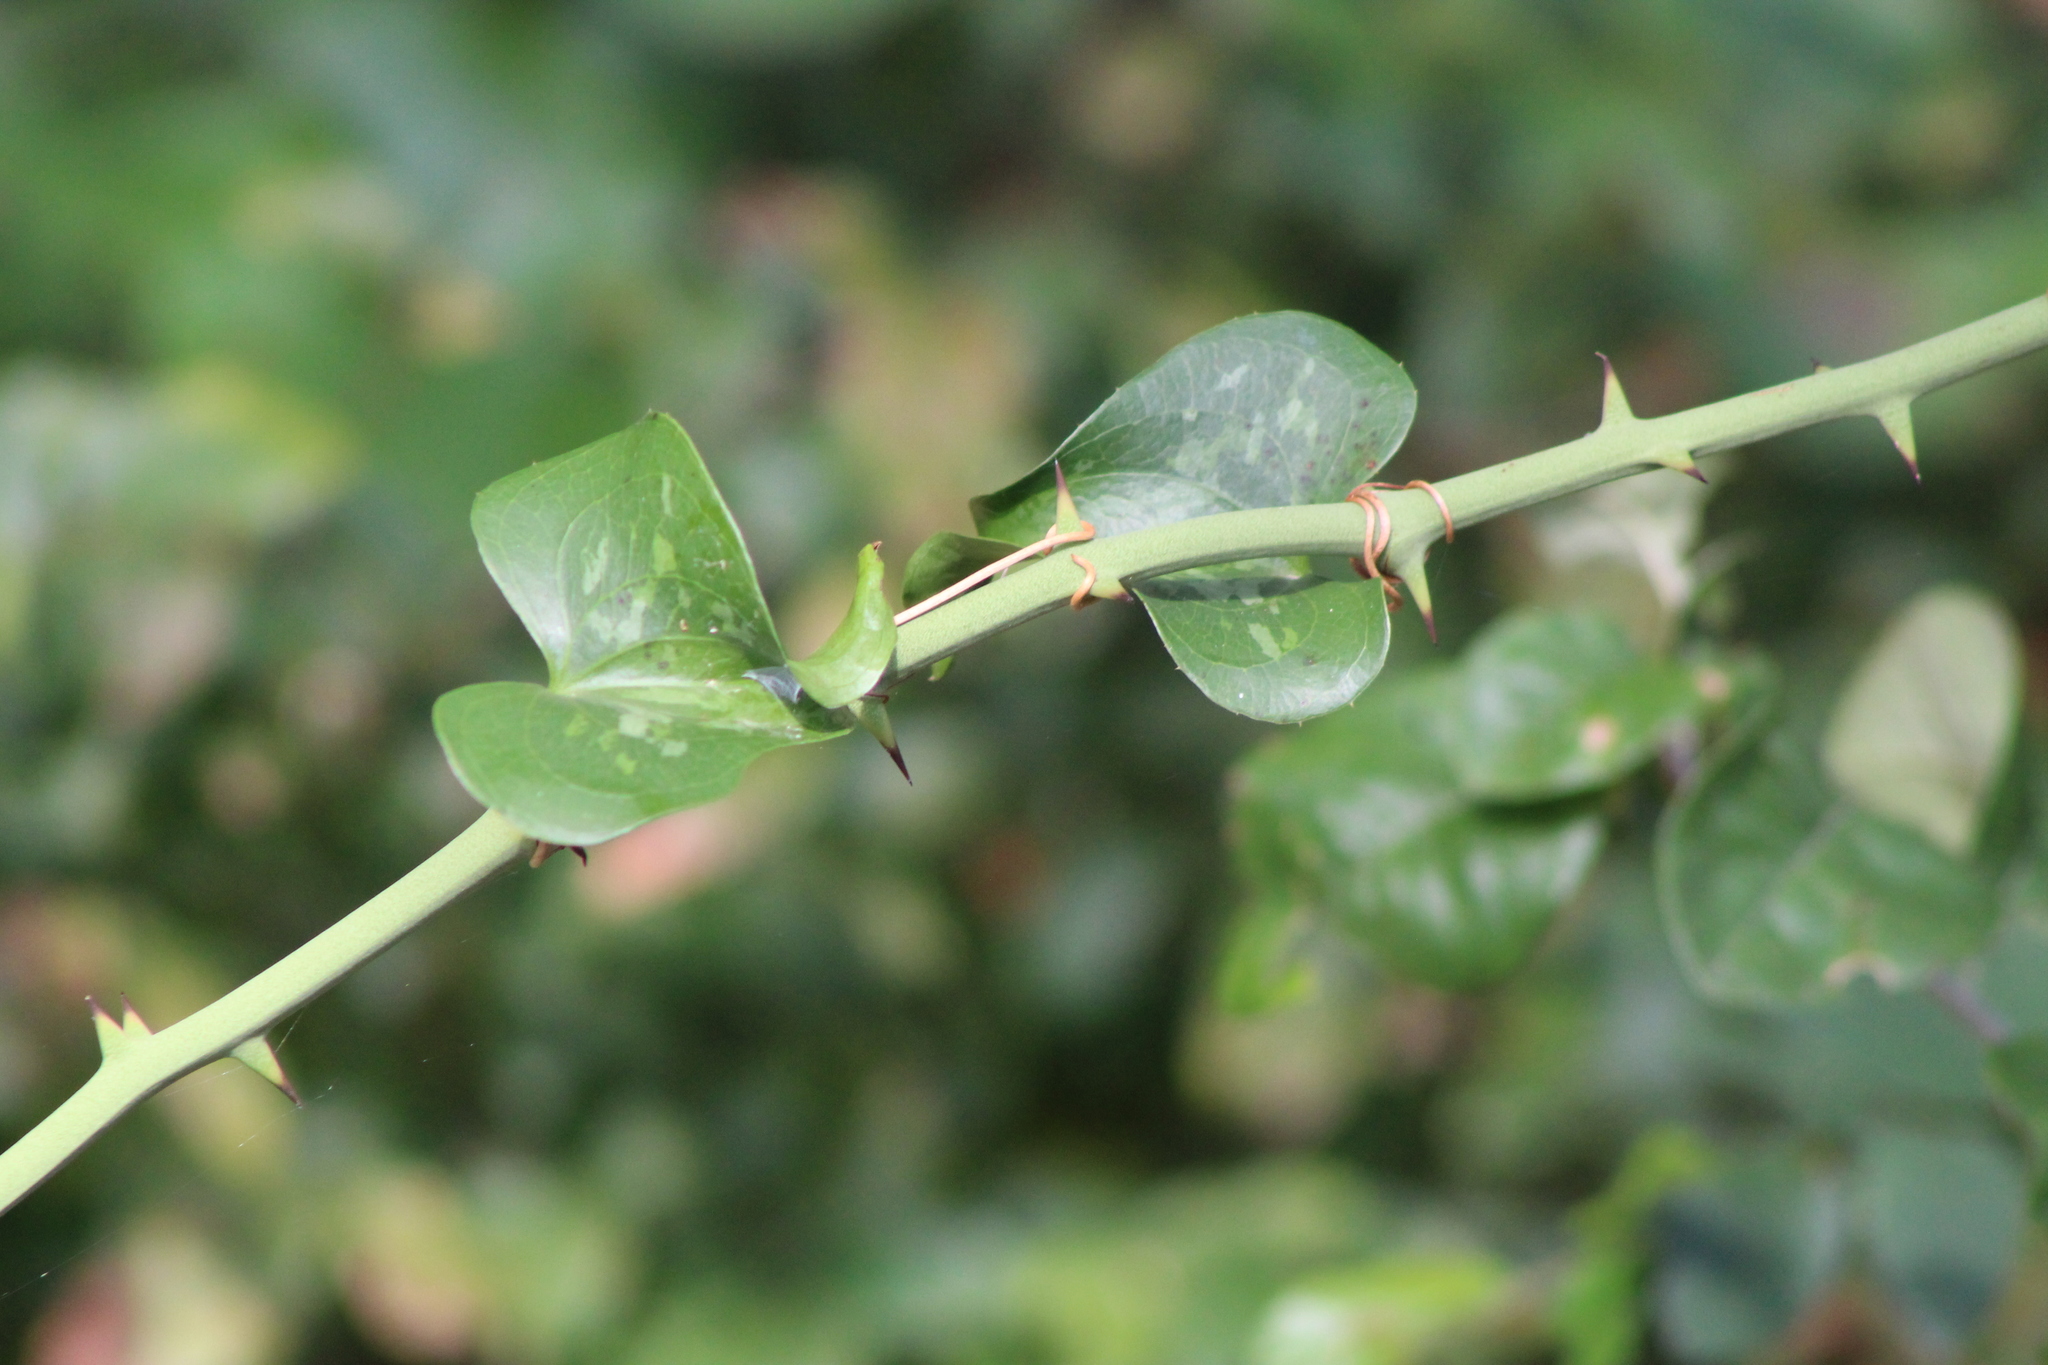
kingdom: Plantae
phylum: Tracheophyta
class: Liliopsida
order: Liliales
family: Smilacaceae
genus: Smilax
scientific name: Smilax bona-nox
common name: Catbrier
